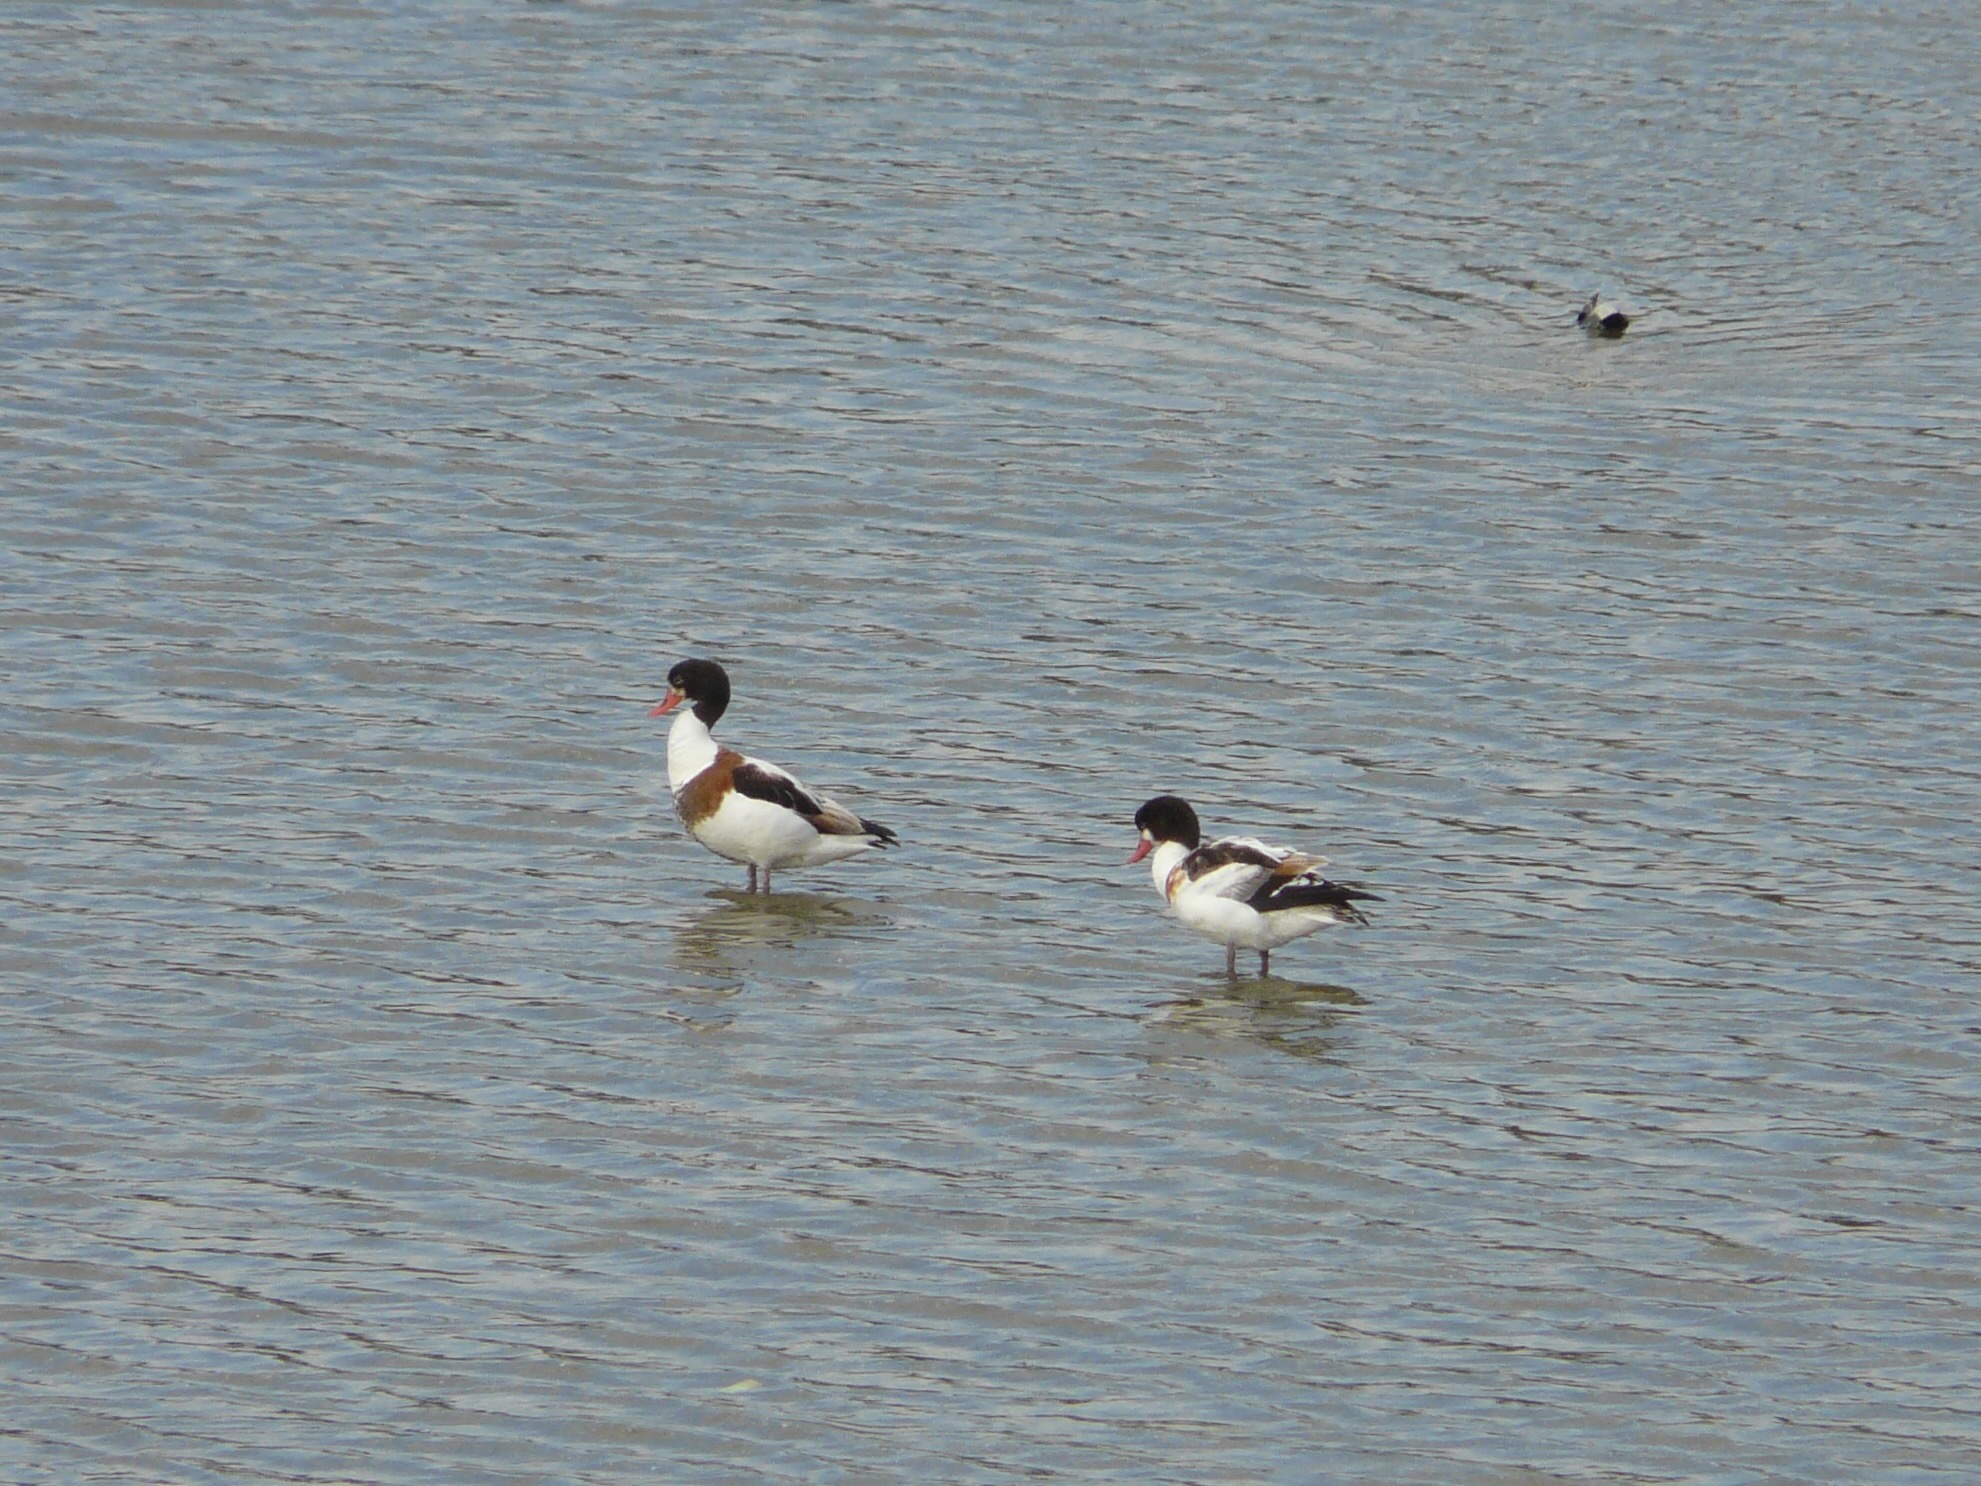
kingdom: Animalia
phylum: Chordata
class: Aves
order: Anseriformes
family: Anatidae
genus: Tadorna
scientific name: Tadorna tadorna
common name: Common shelduck
